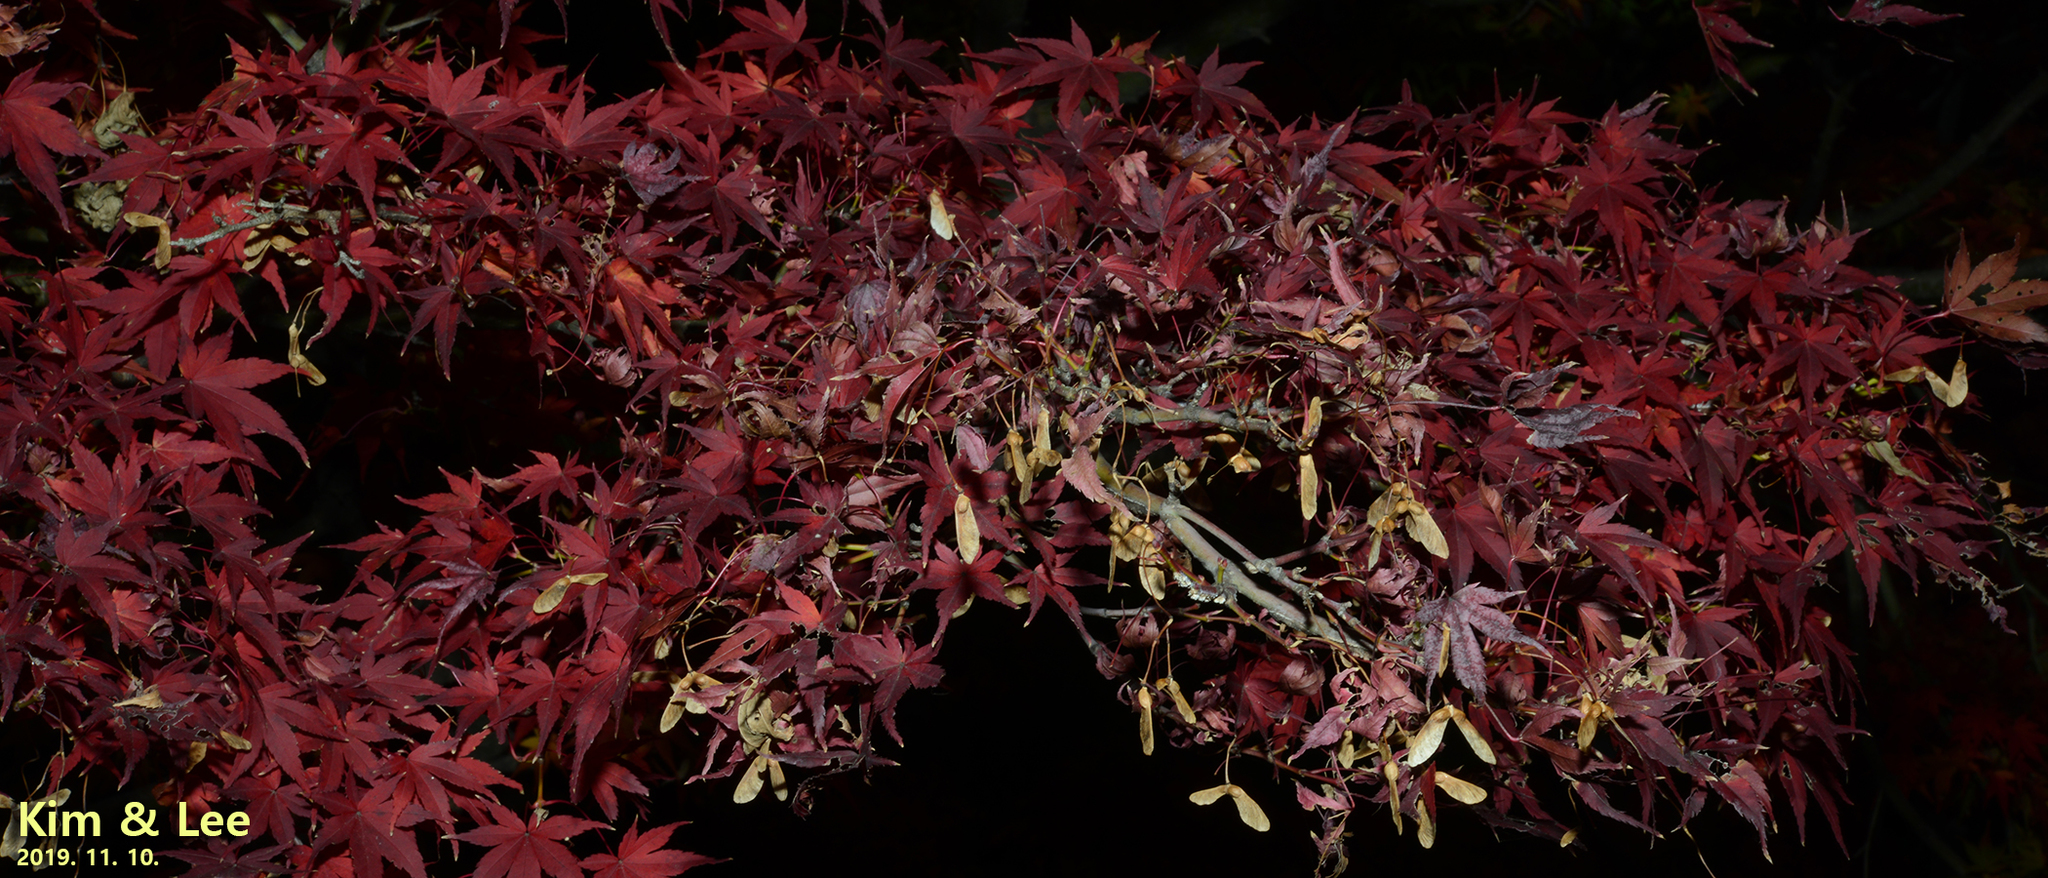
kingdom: Plantae
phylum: Tracheophyta
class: Magnoliopsida
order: Sapindales
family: Sapindaceae
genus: Acer
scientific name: Acer palmatum
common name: Japanese maple
